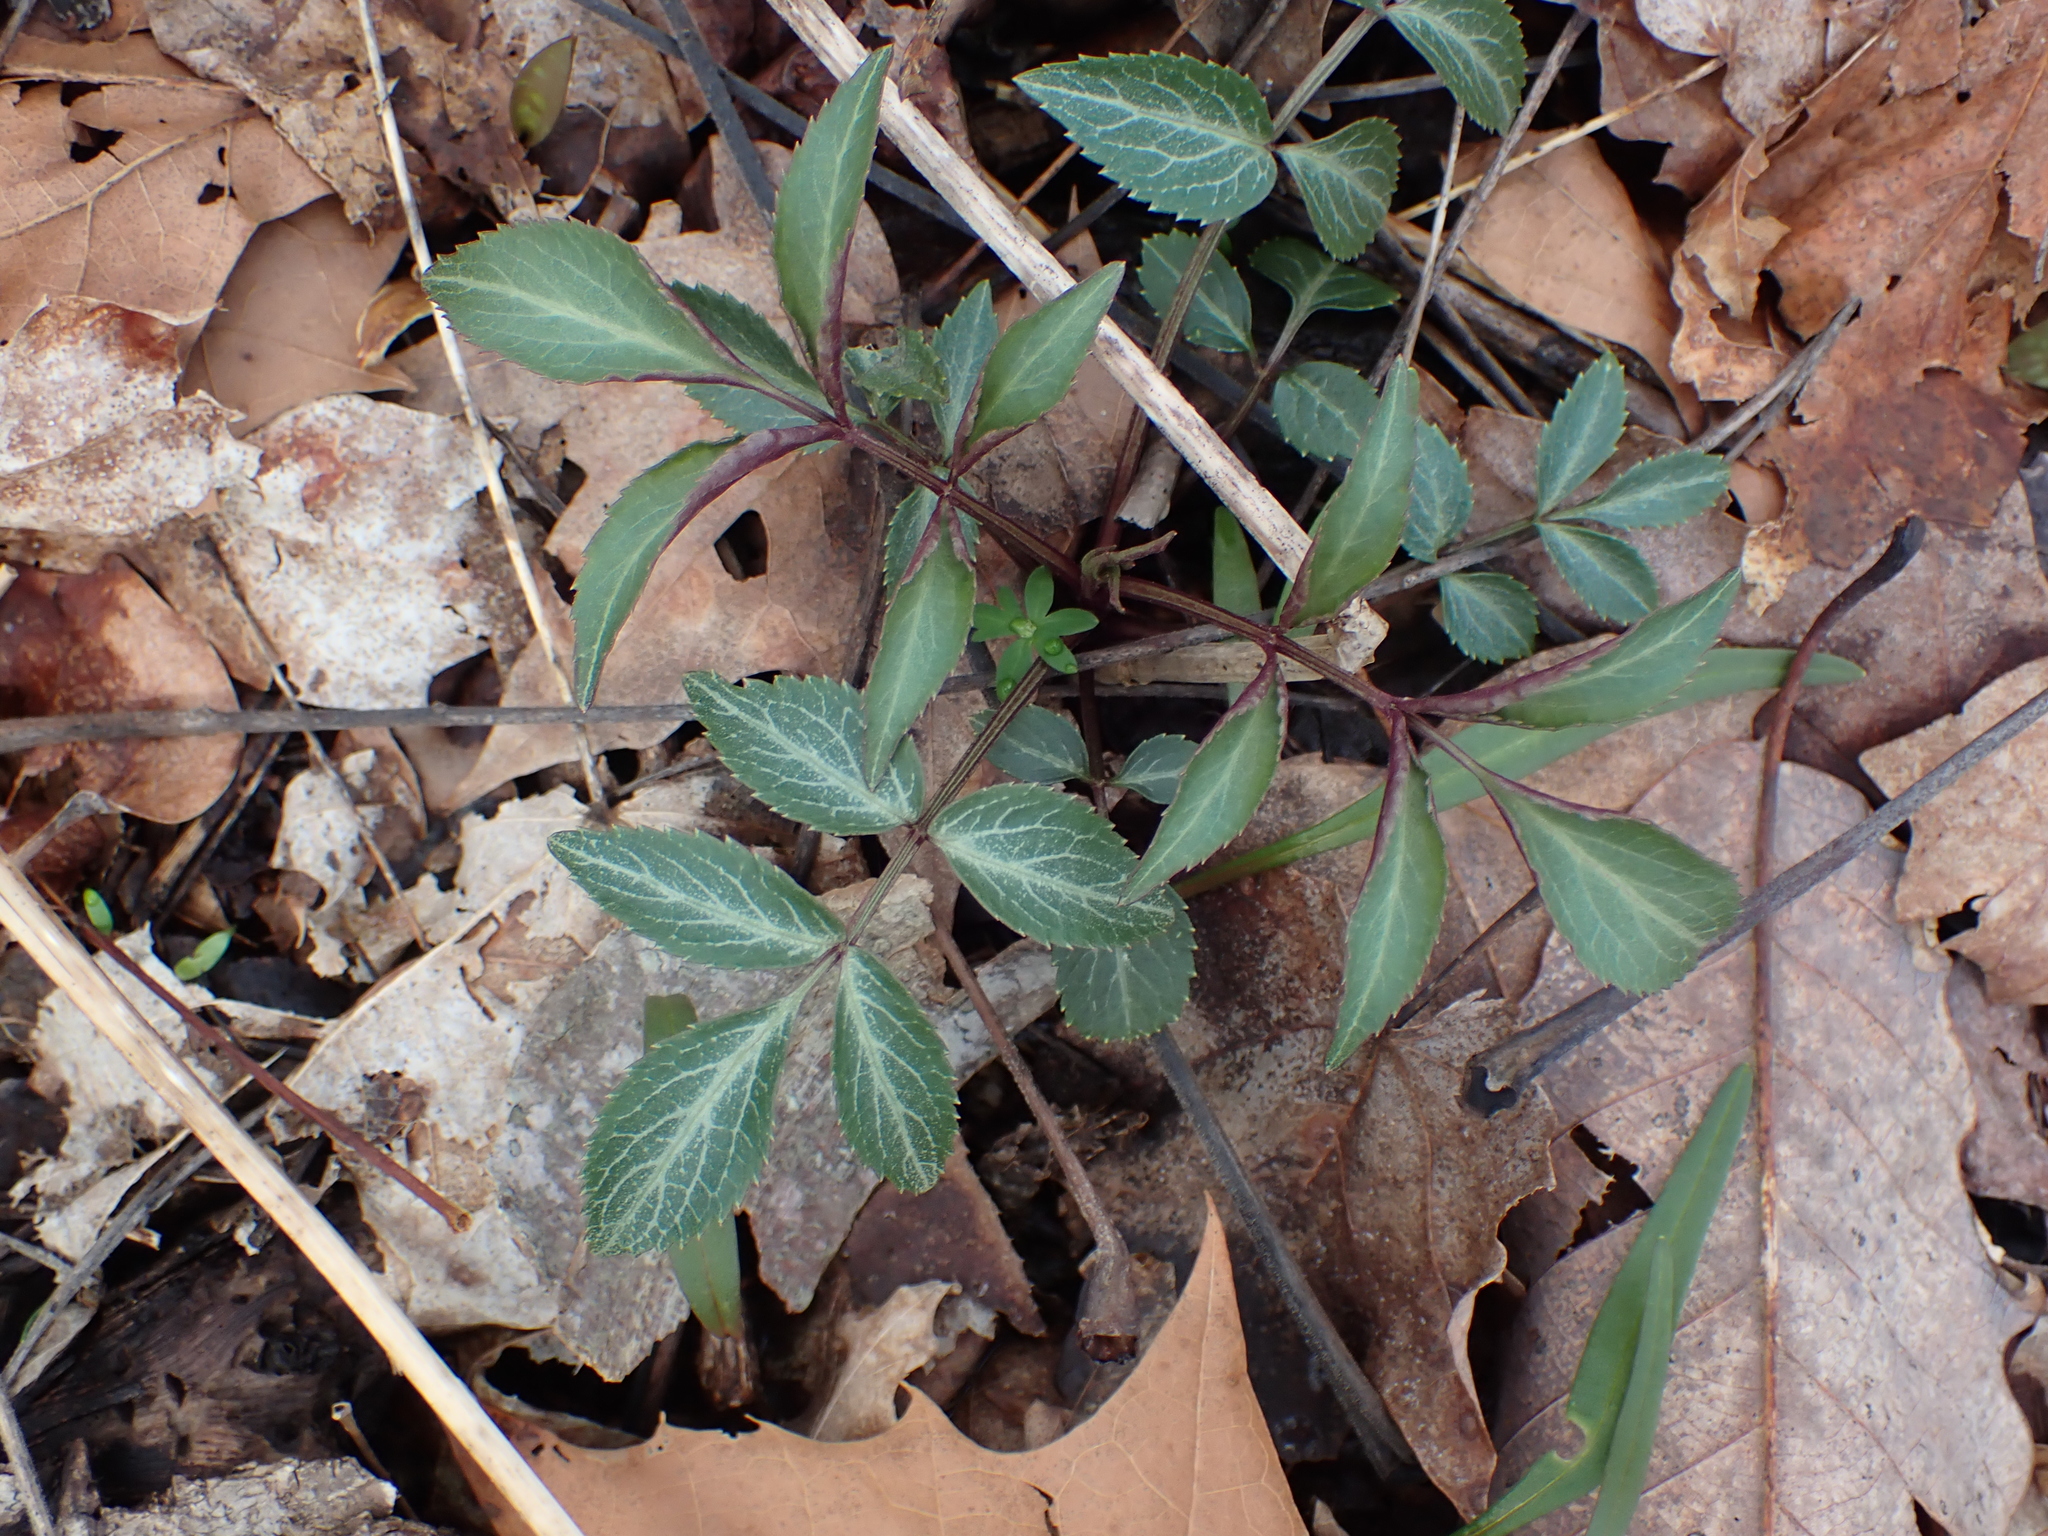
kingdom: Plantae
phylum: Tracheophyta
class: Magnoliopsida
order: Dipsacales
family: Viburnaceae
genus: Sambucus
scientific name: Sambucus canadensis
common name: American elder
